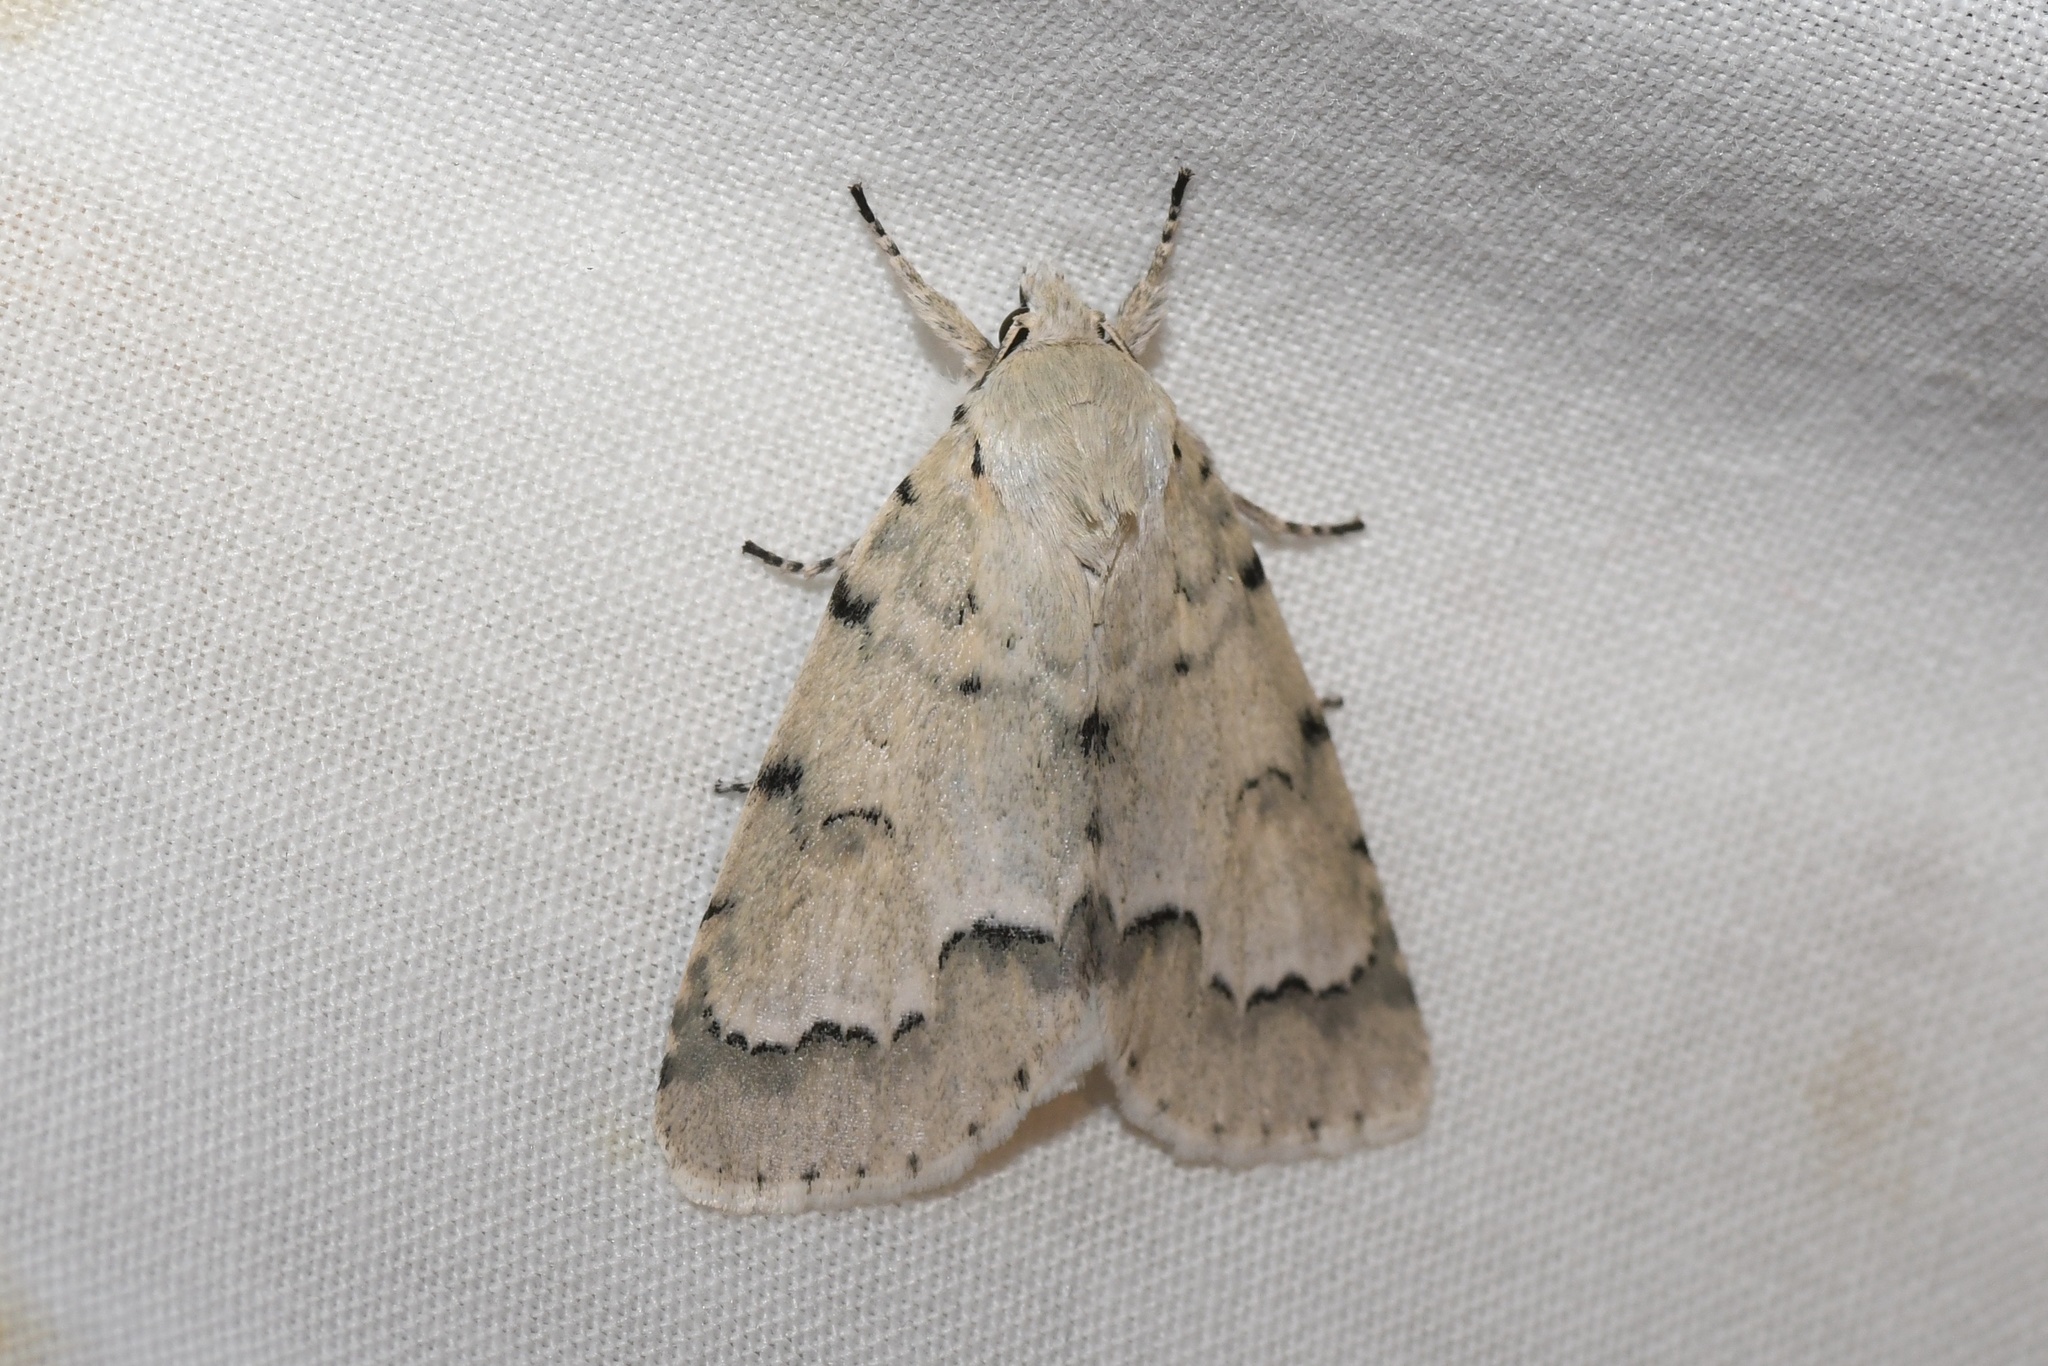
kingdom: Animalia
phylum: Arthropoda
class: Insecta
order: Lepidoptera
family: Noctuidae
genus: Acronicta
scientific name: Acronicta innotata
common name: Unmarked dagger
